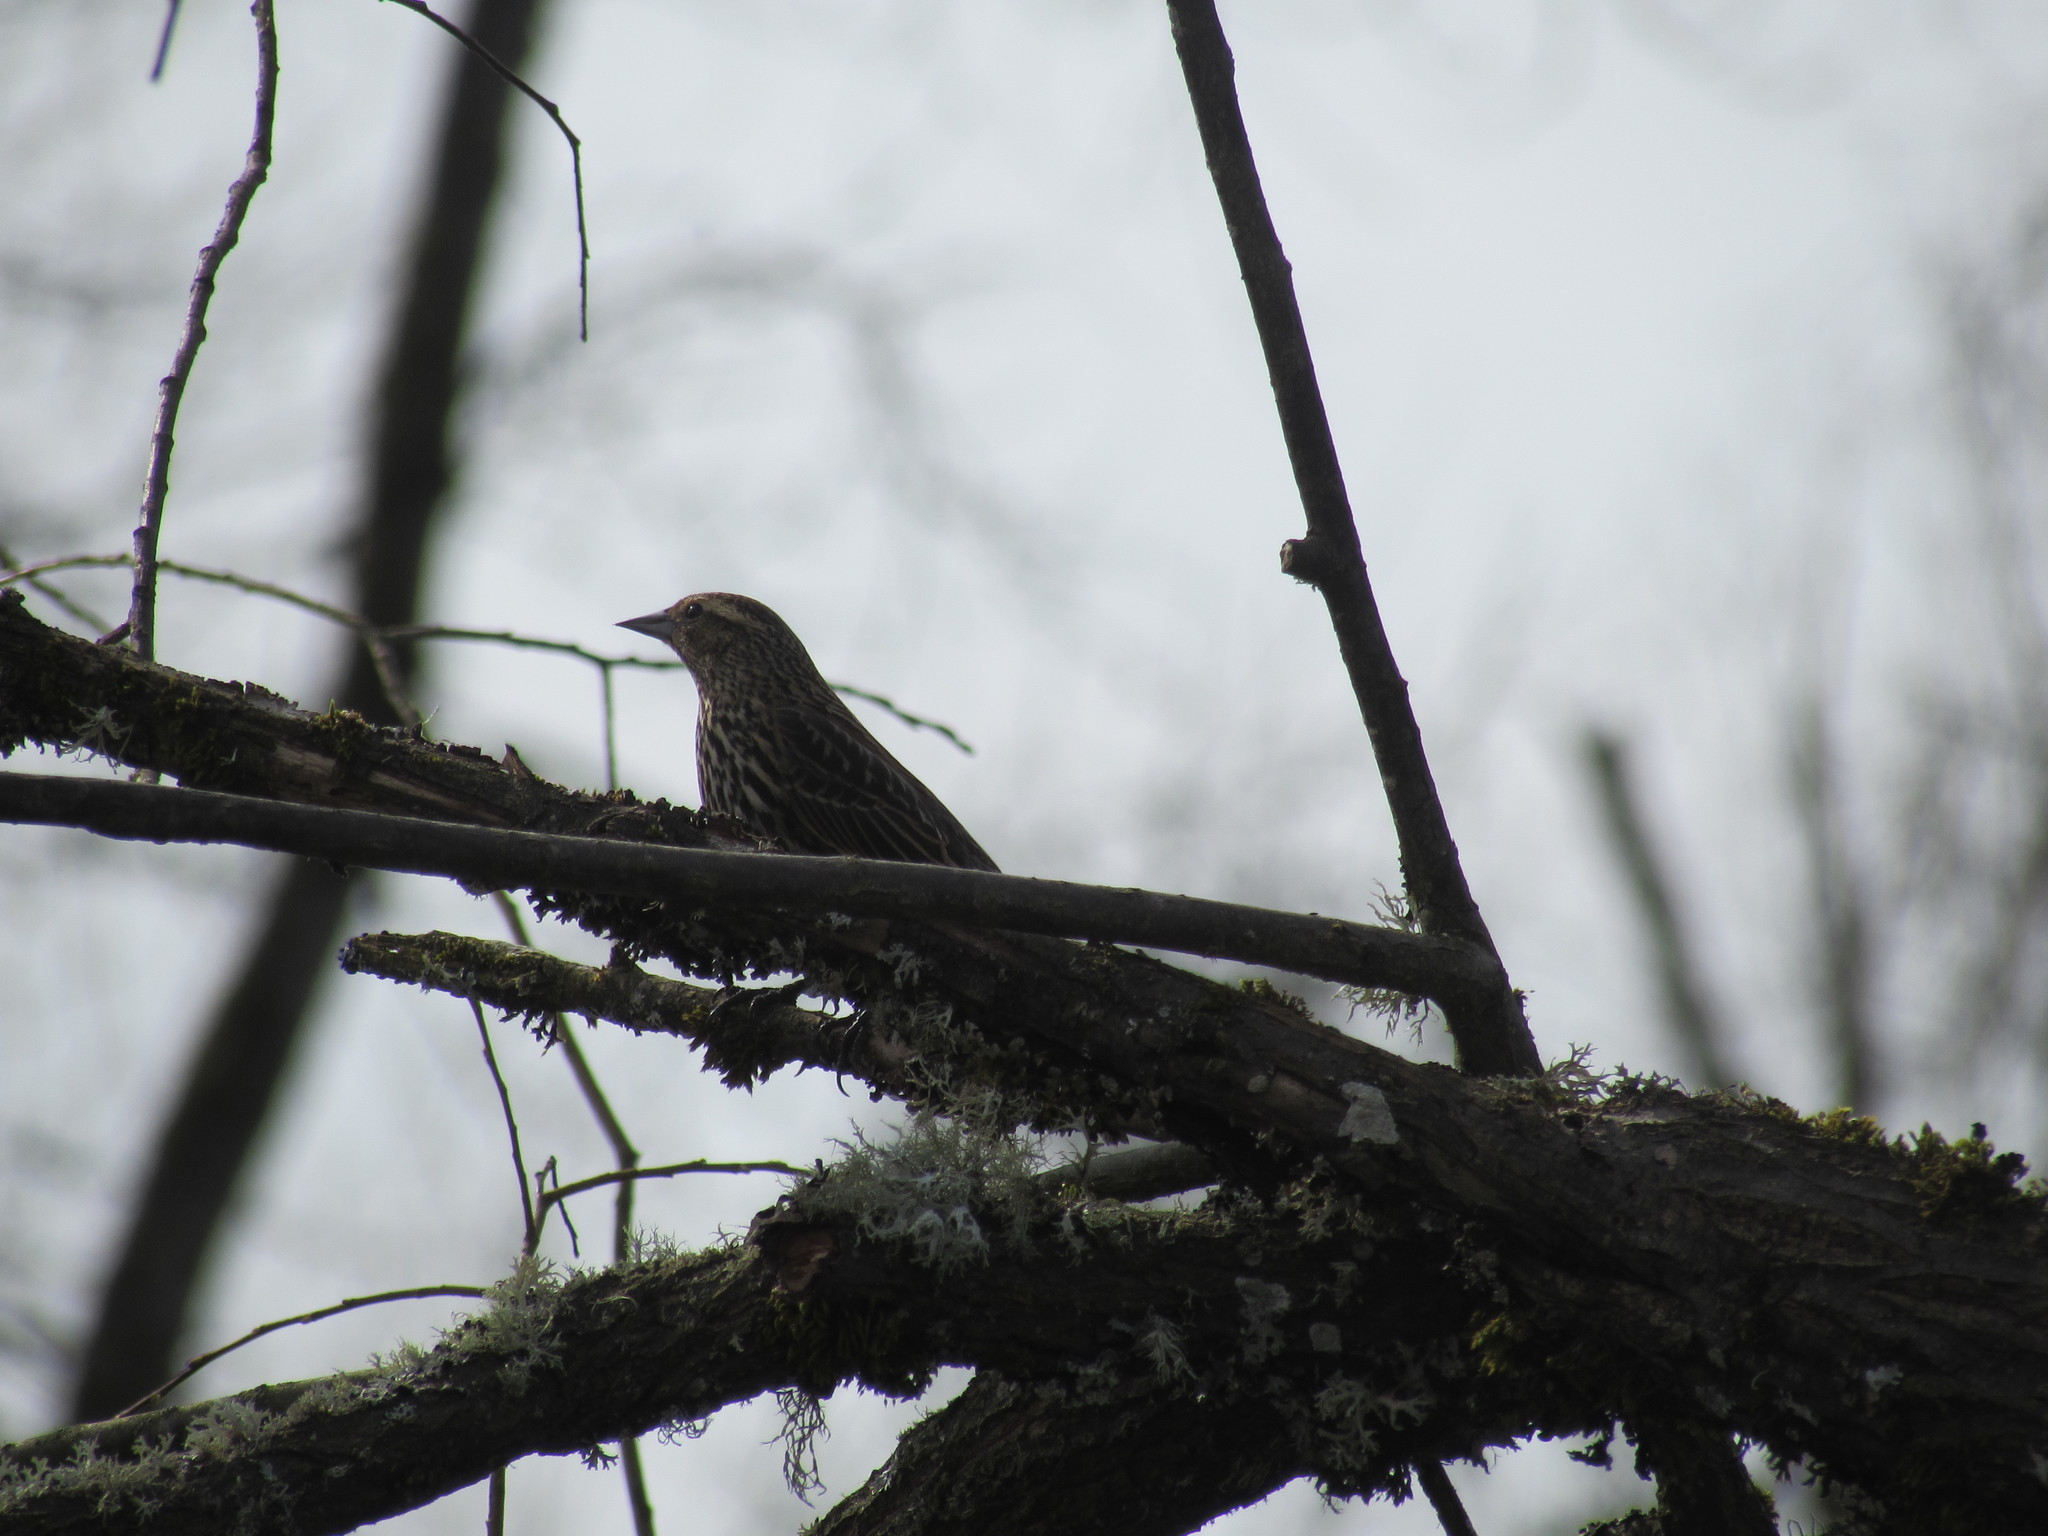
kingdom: Animalia
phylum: Chordata
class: Aves
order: Passeriformes
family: Icteridae
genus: Agelaius
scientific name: Agelaius phoeniceus
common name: Red-winged blackbird
